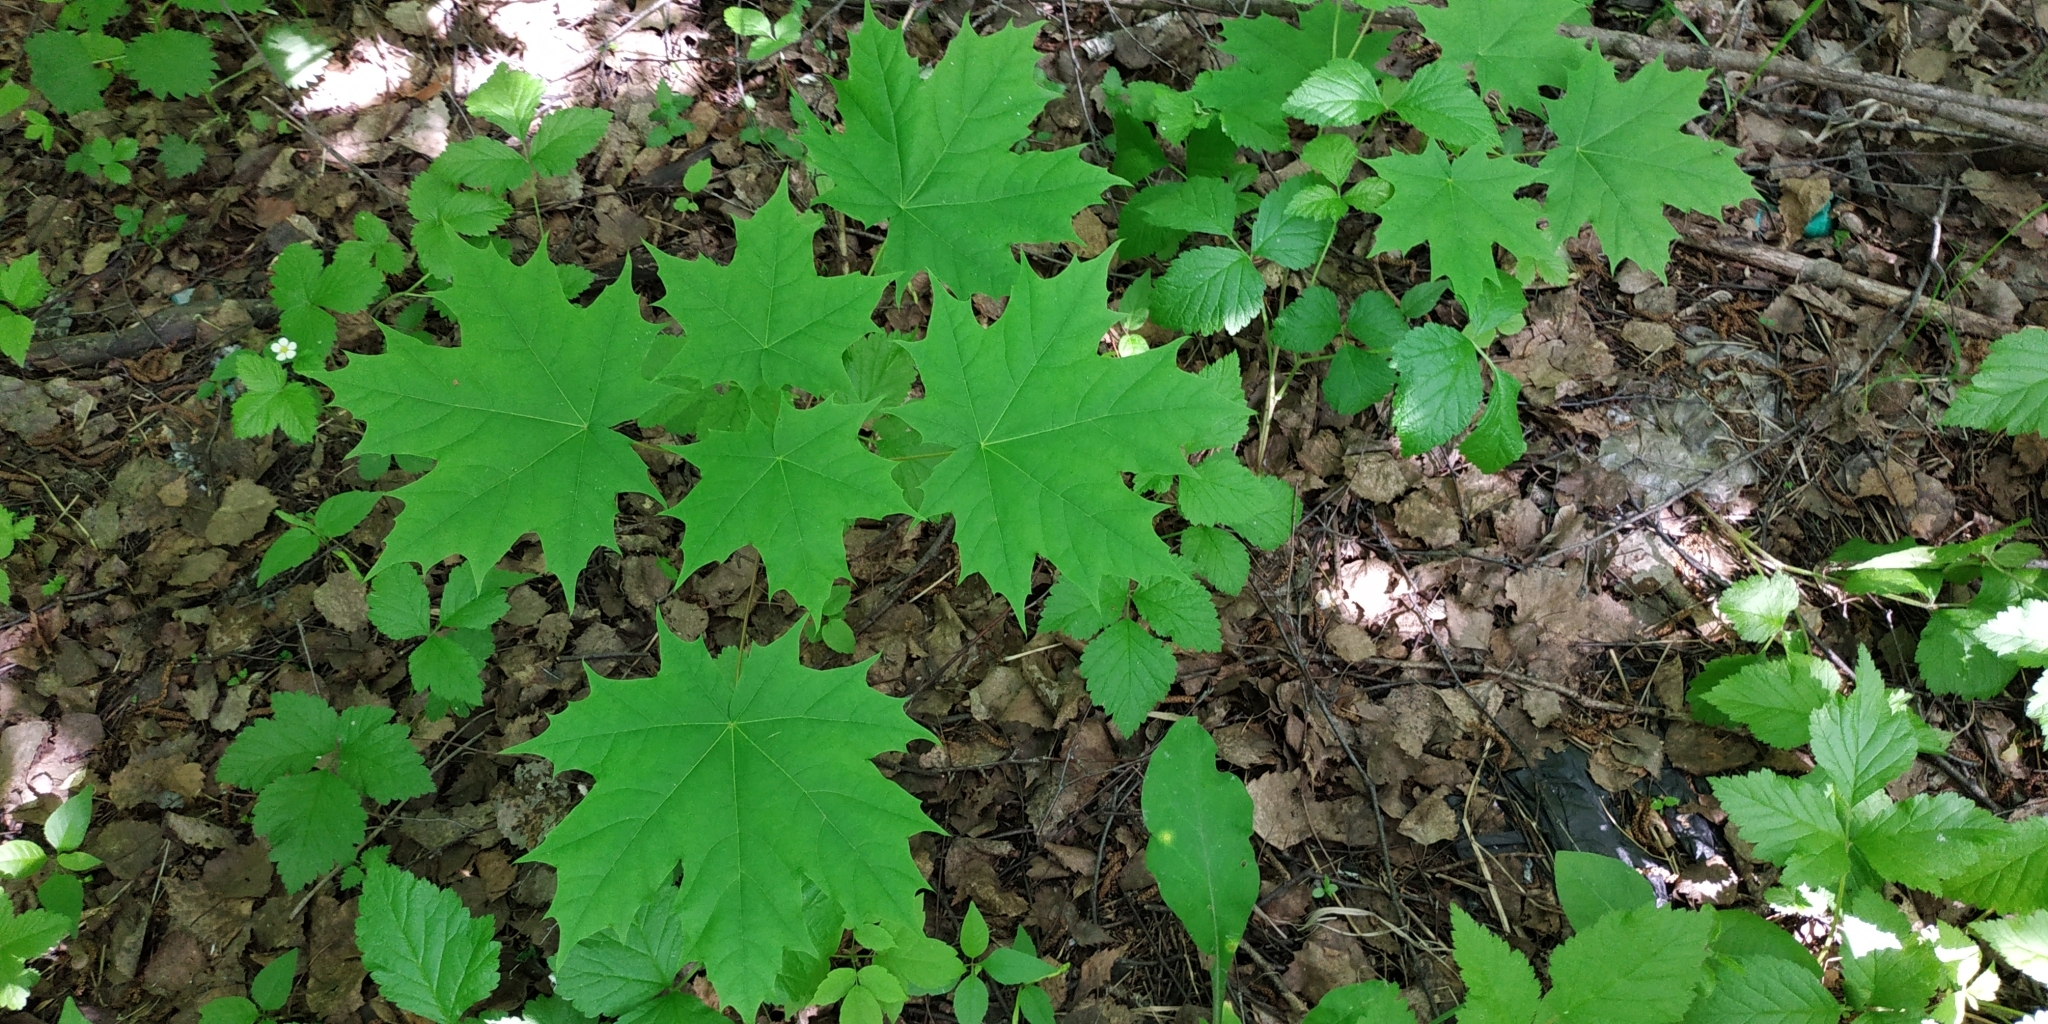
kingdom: Plantae
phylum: Tracheophyta
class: Magnoliopsida
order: Sapindales
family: Sapindaceae
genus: Acer
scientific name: Acer platanoides
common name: Norway maple
